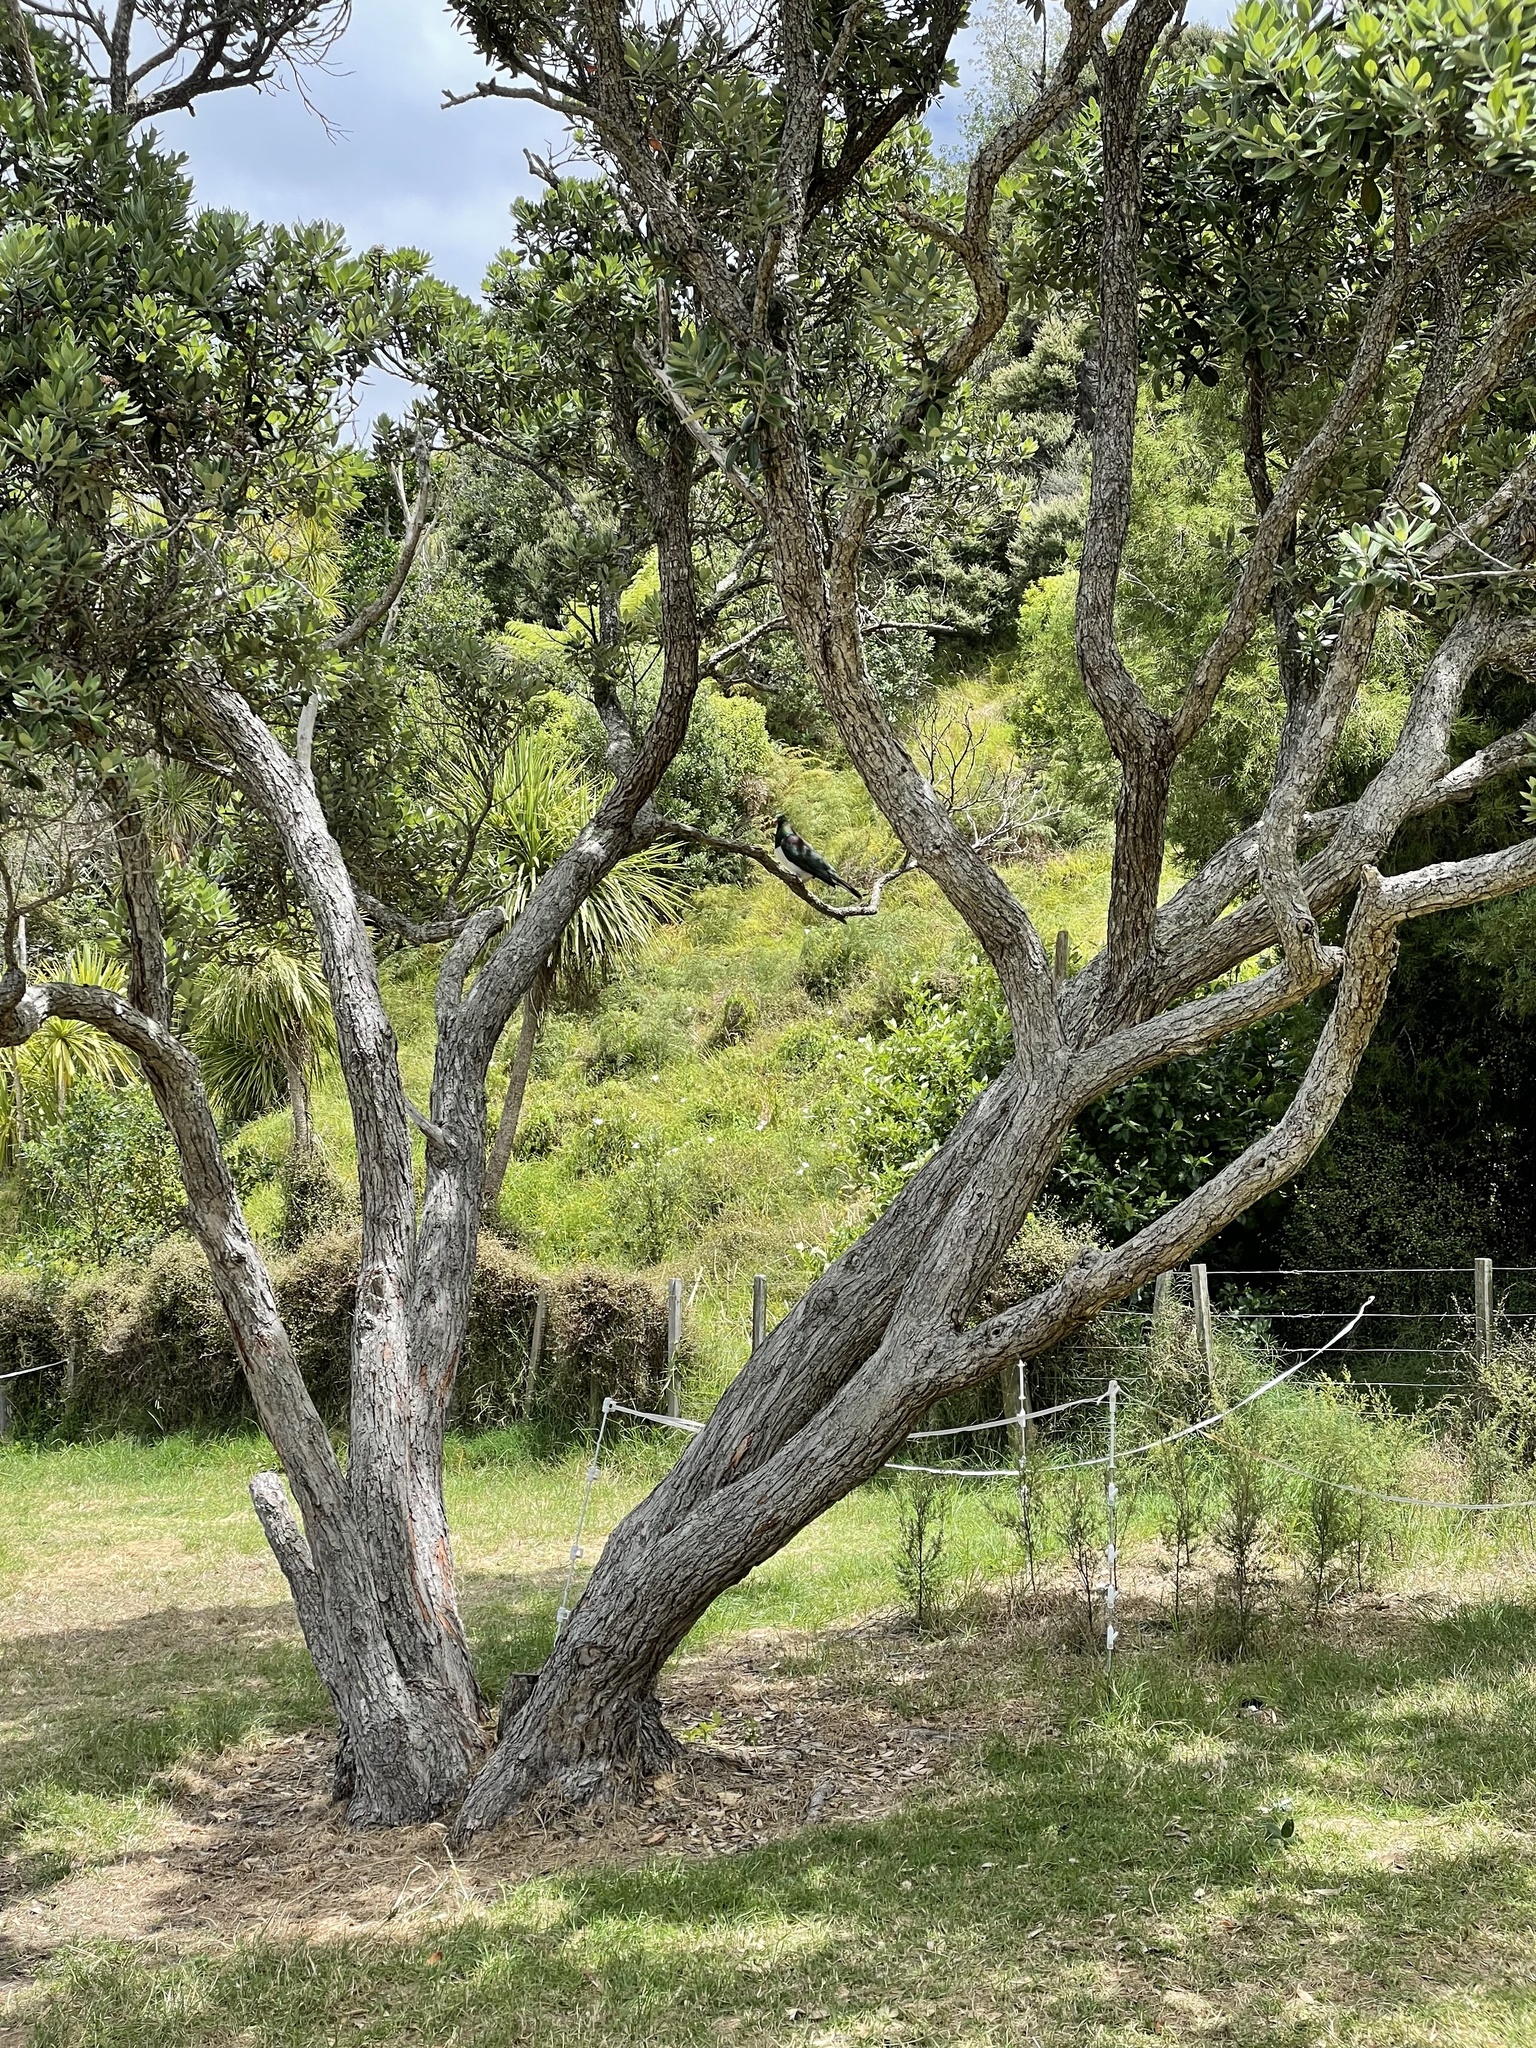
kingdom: Animalia
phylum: Chordata
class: Aves
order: Columbiformes
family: Columbidae
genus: Hemiphaga
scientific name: Hemiphaga novaeseelandiae
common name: New zealand pigeon
